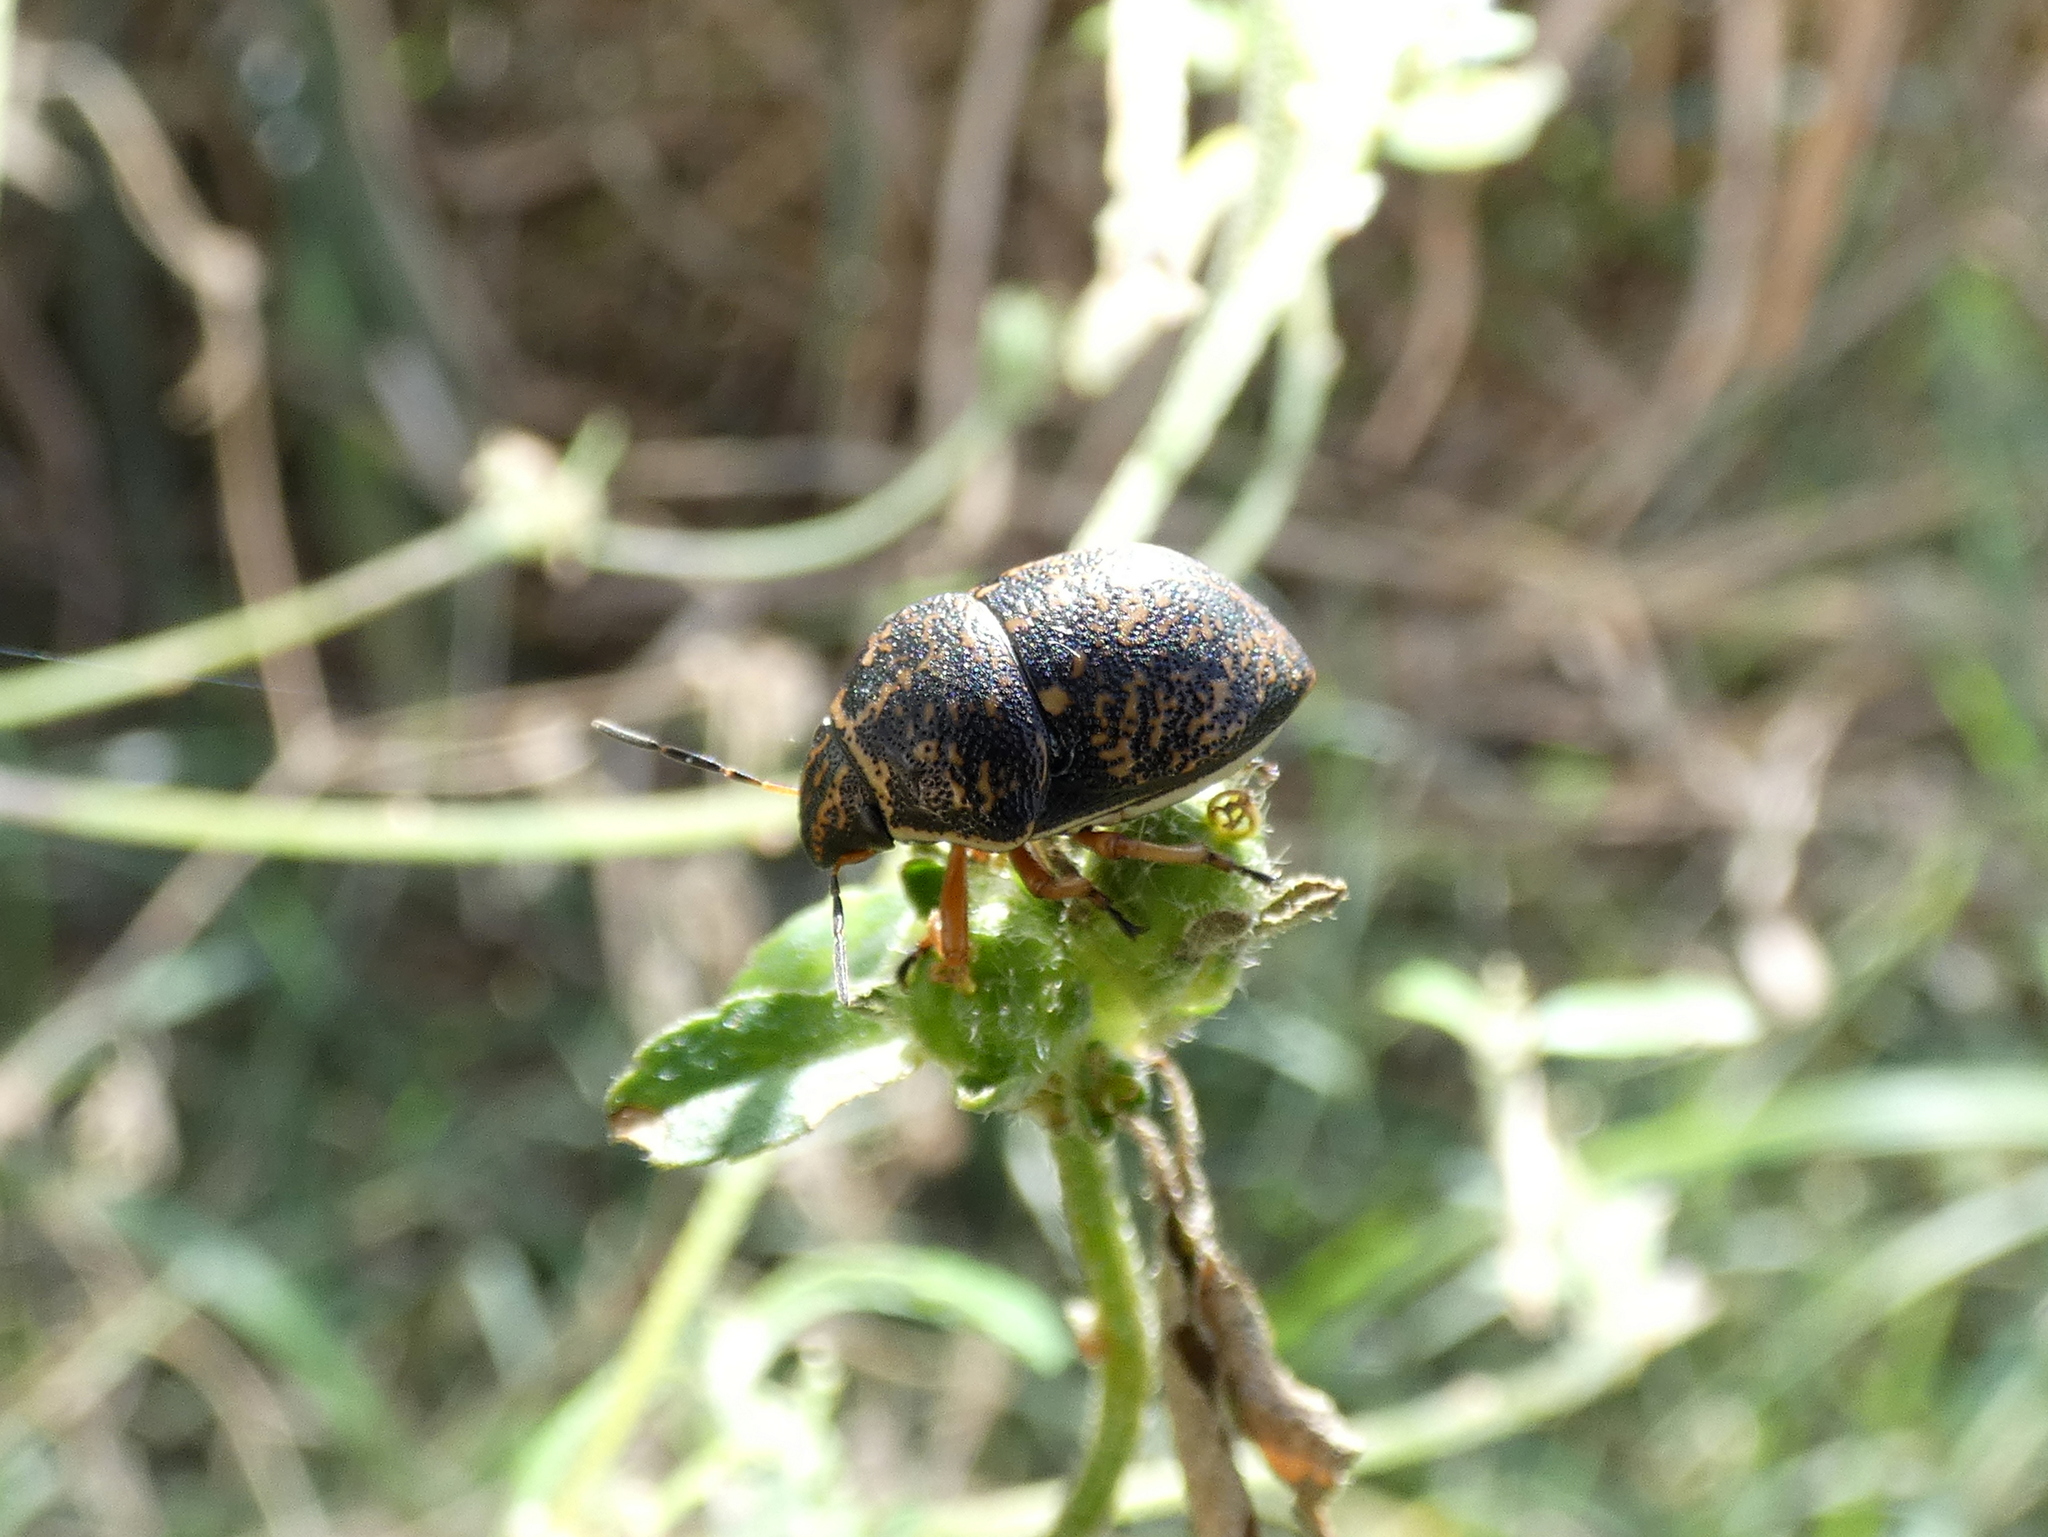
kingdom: Animalia
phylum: Arthropoda
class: Insecta
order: Hemiptera
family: Scutelleridae
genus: Orsilochides
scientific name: Orsilochides guttata
